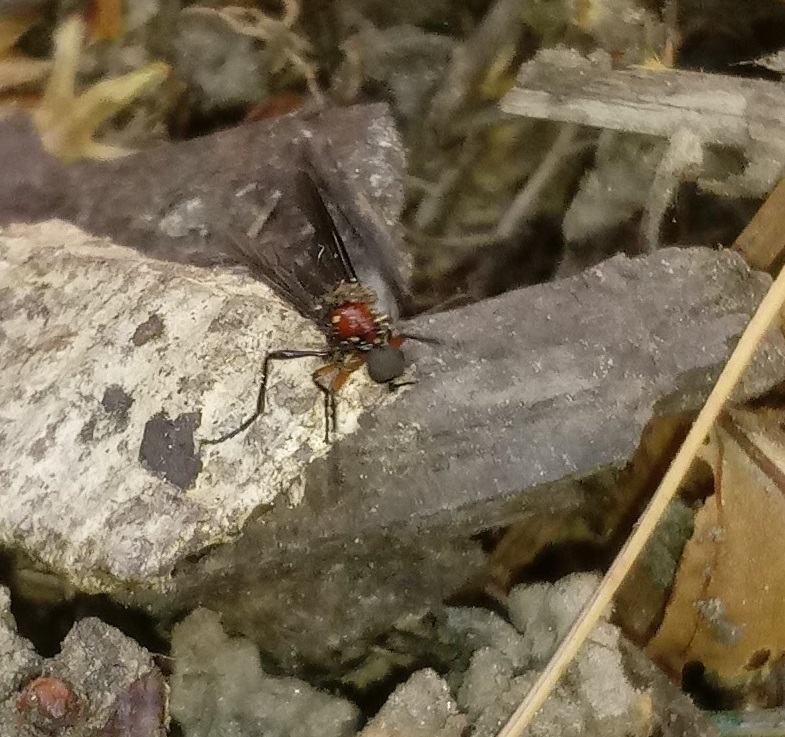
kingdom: Animalia
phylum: Arthropoda
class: Insecta
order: Diptera
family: Bibionidae
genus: Dilophus
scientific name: Dilophus spinipes
